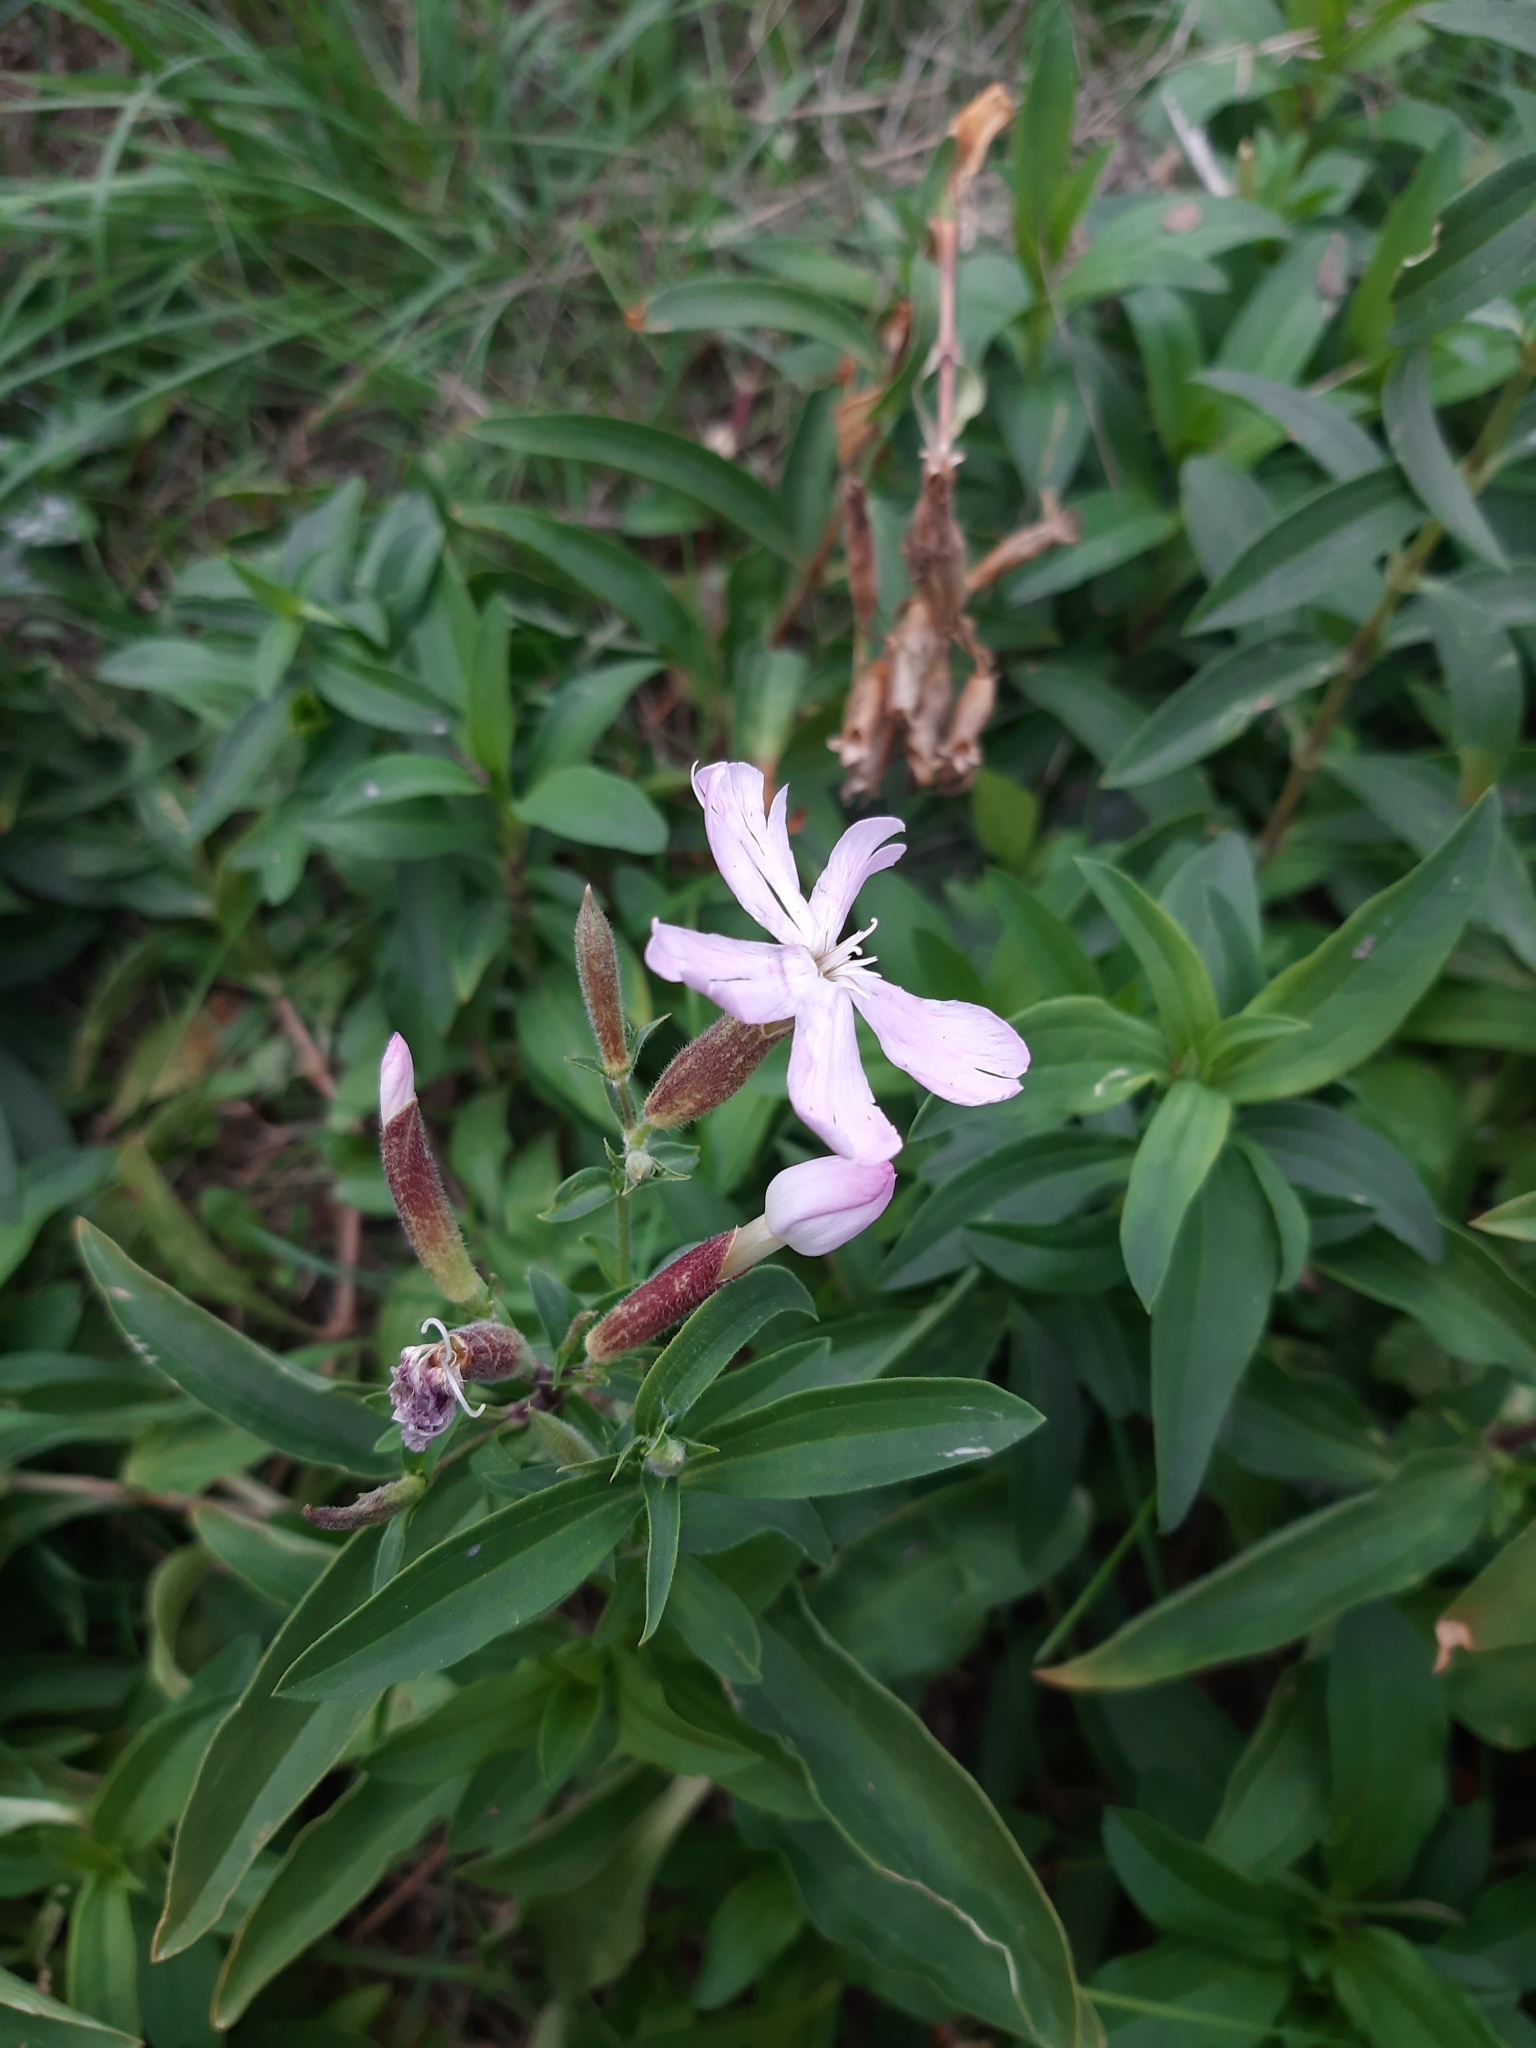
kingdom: Plantae
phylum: Tracheophyta
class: Magnoliopsida
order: Caryophyllales
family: Caryophyllaceae
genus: Saponaria
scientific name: Saponaria officinalis
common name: Soapwort
